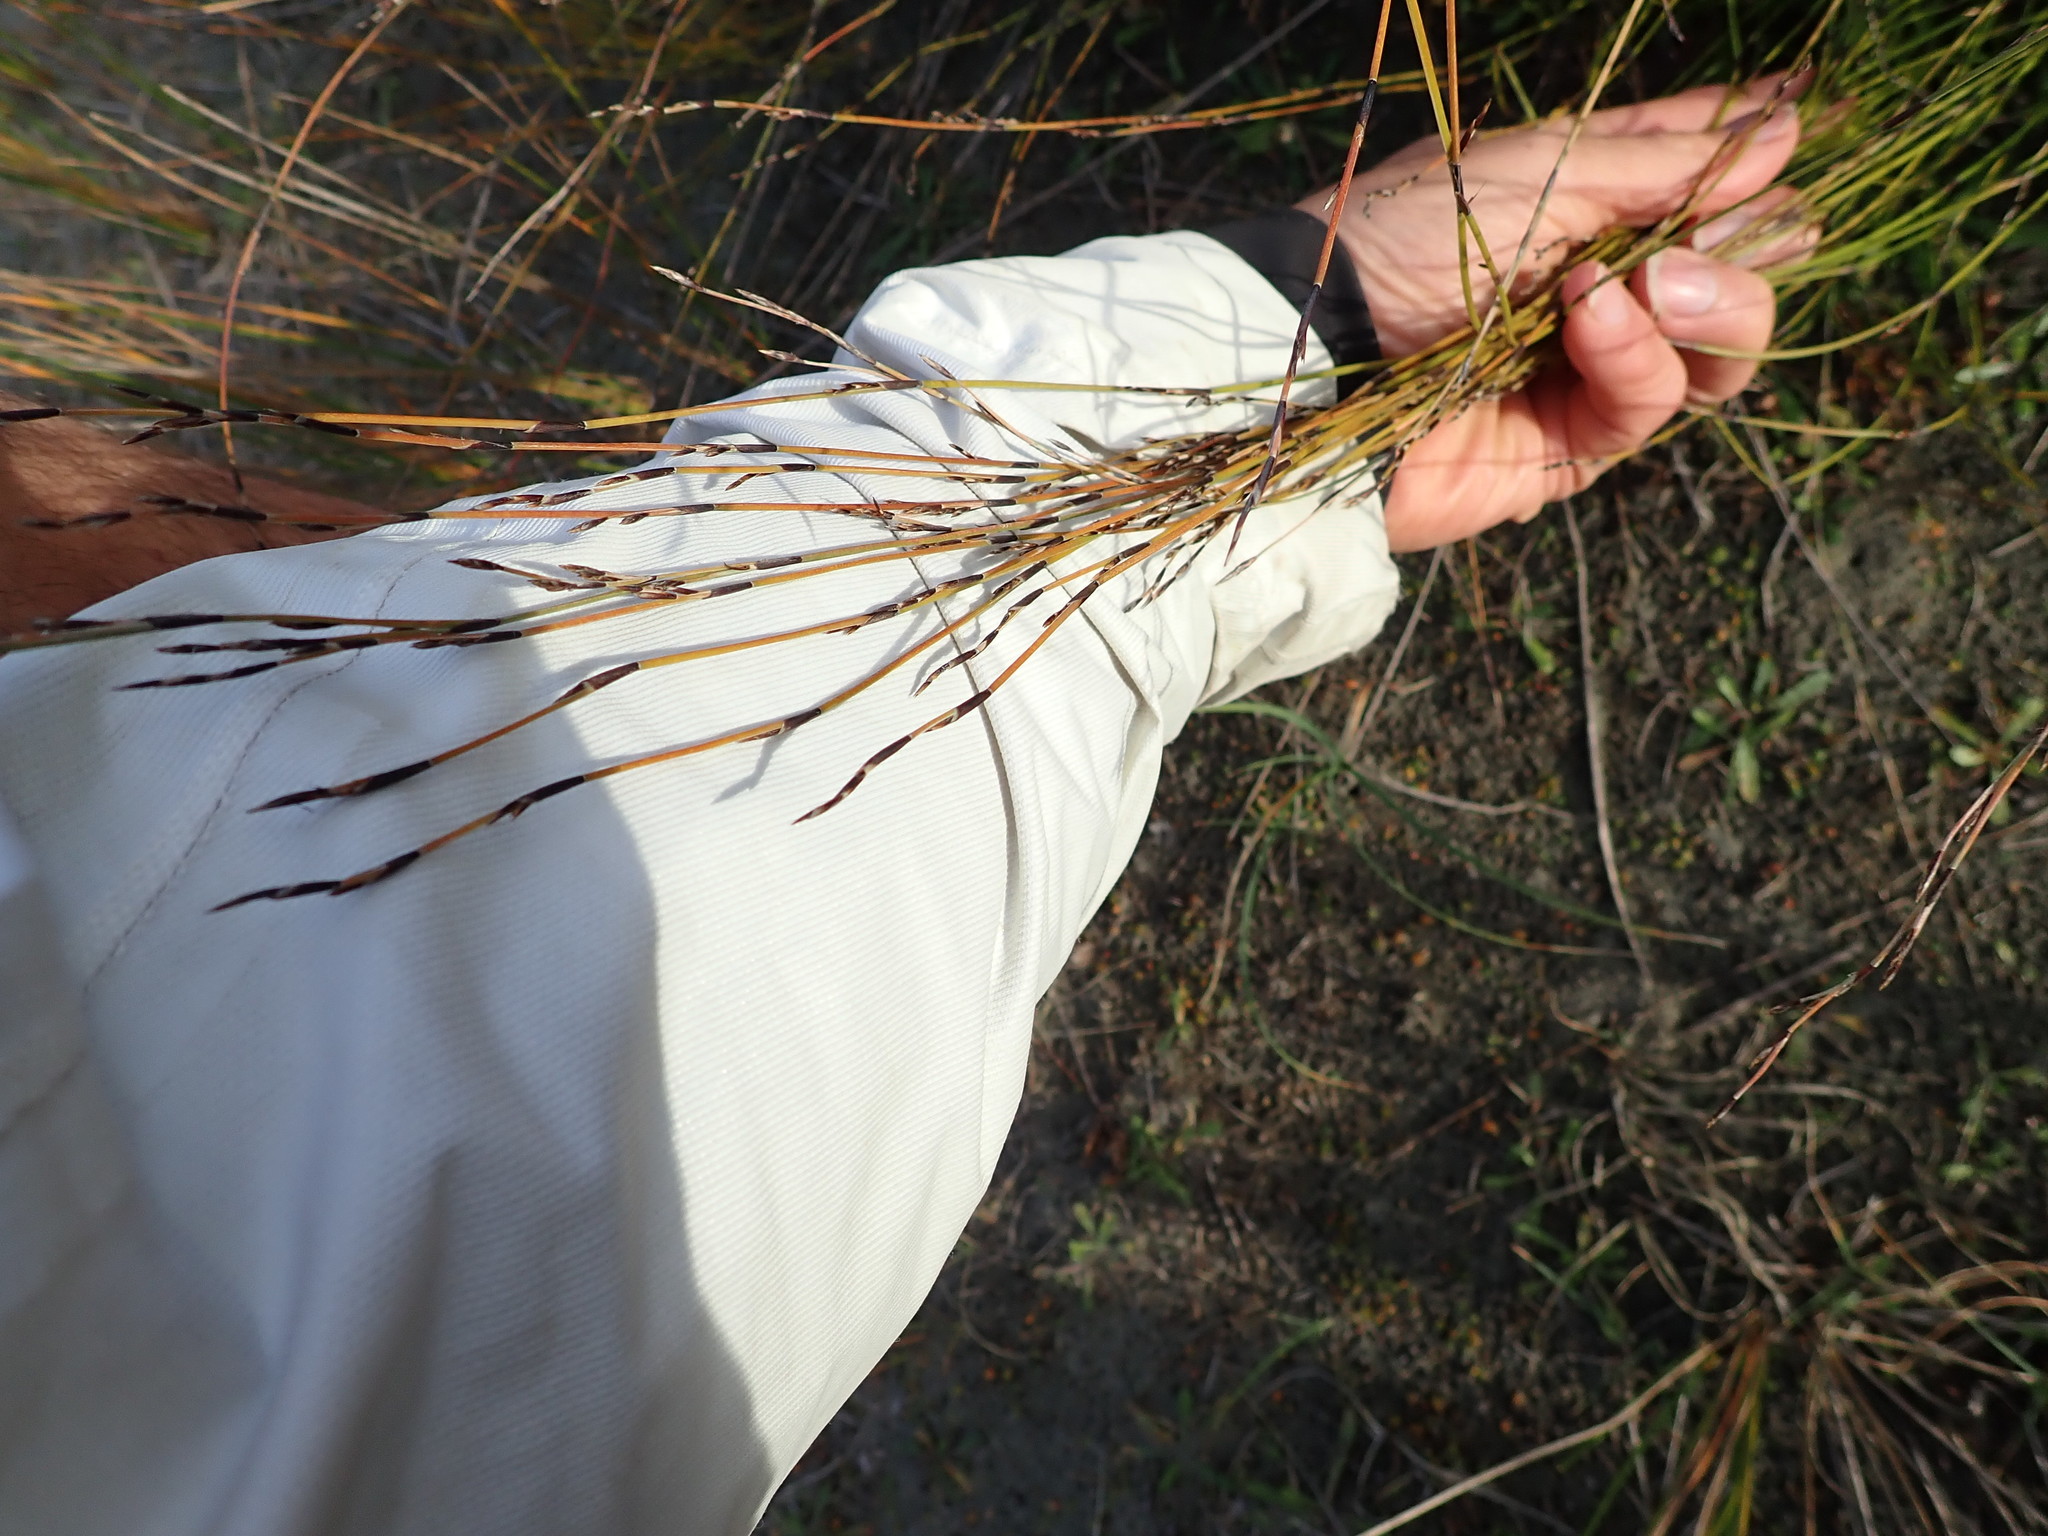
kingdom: Plantae
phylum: Tracheophyta
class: Liliopsida
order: Poales
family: Restionaceae
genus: Apodasmia
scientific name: Apodasmia similis
